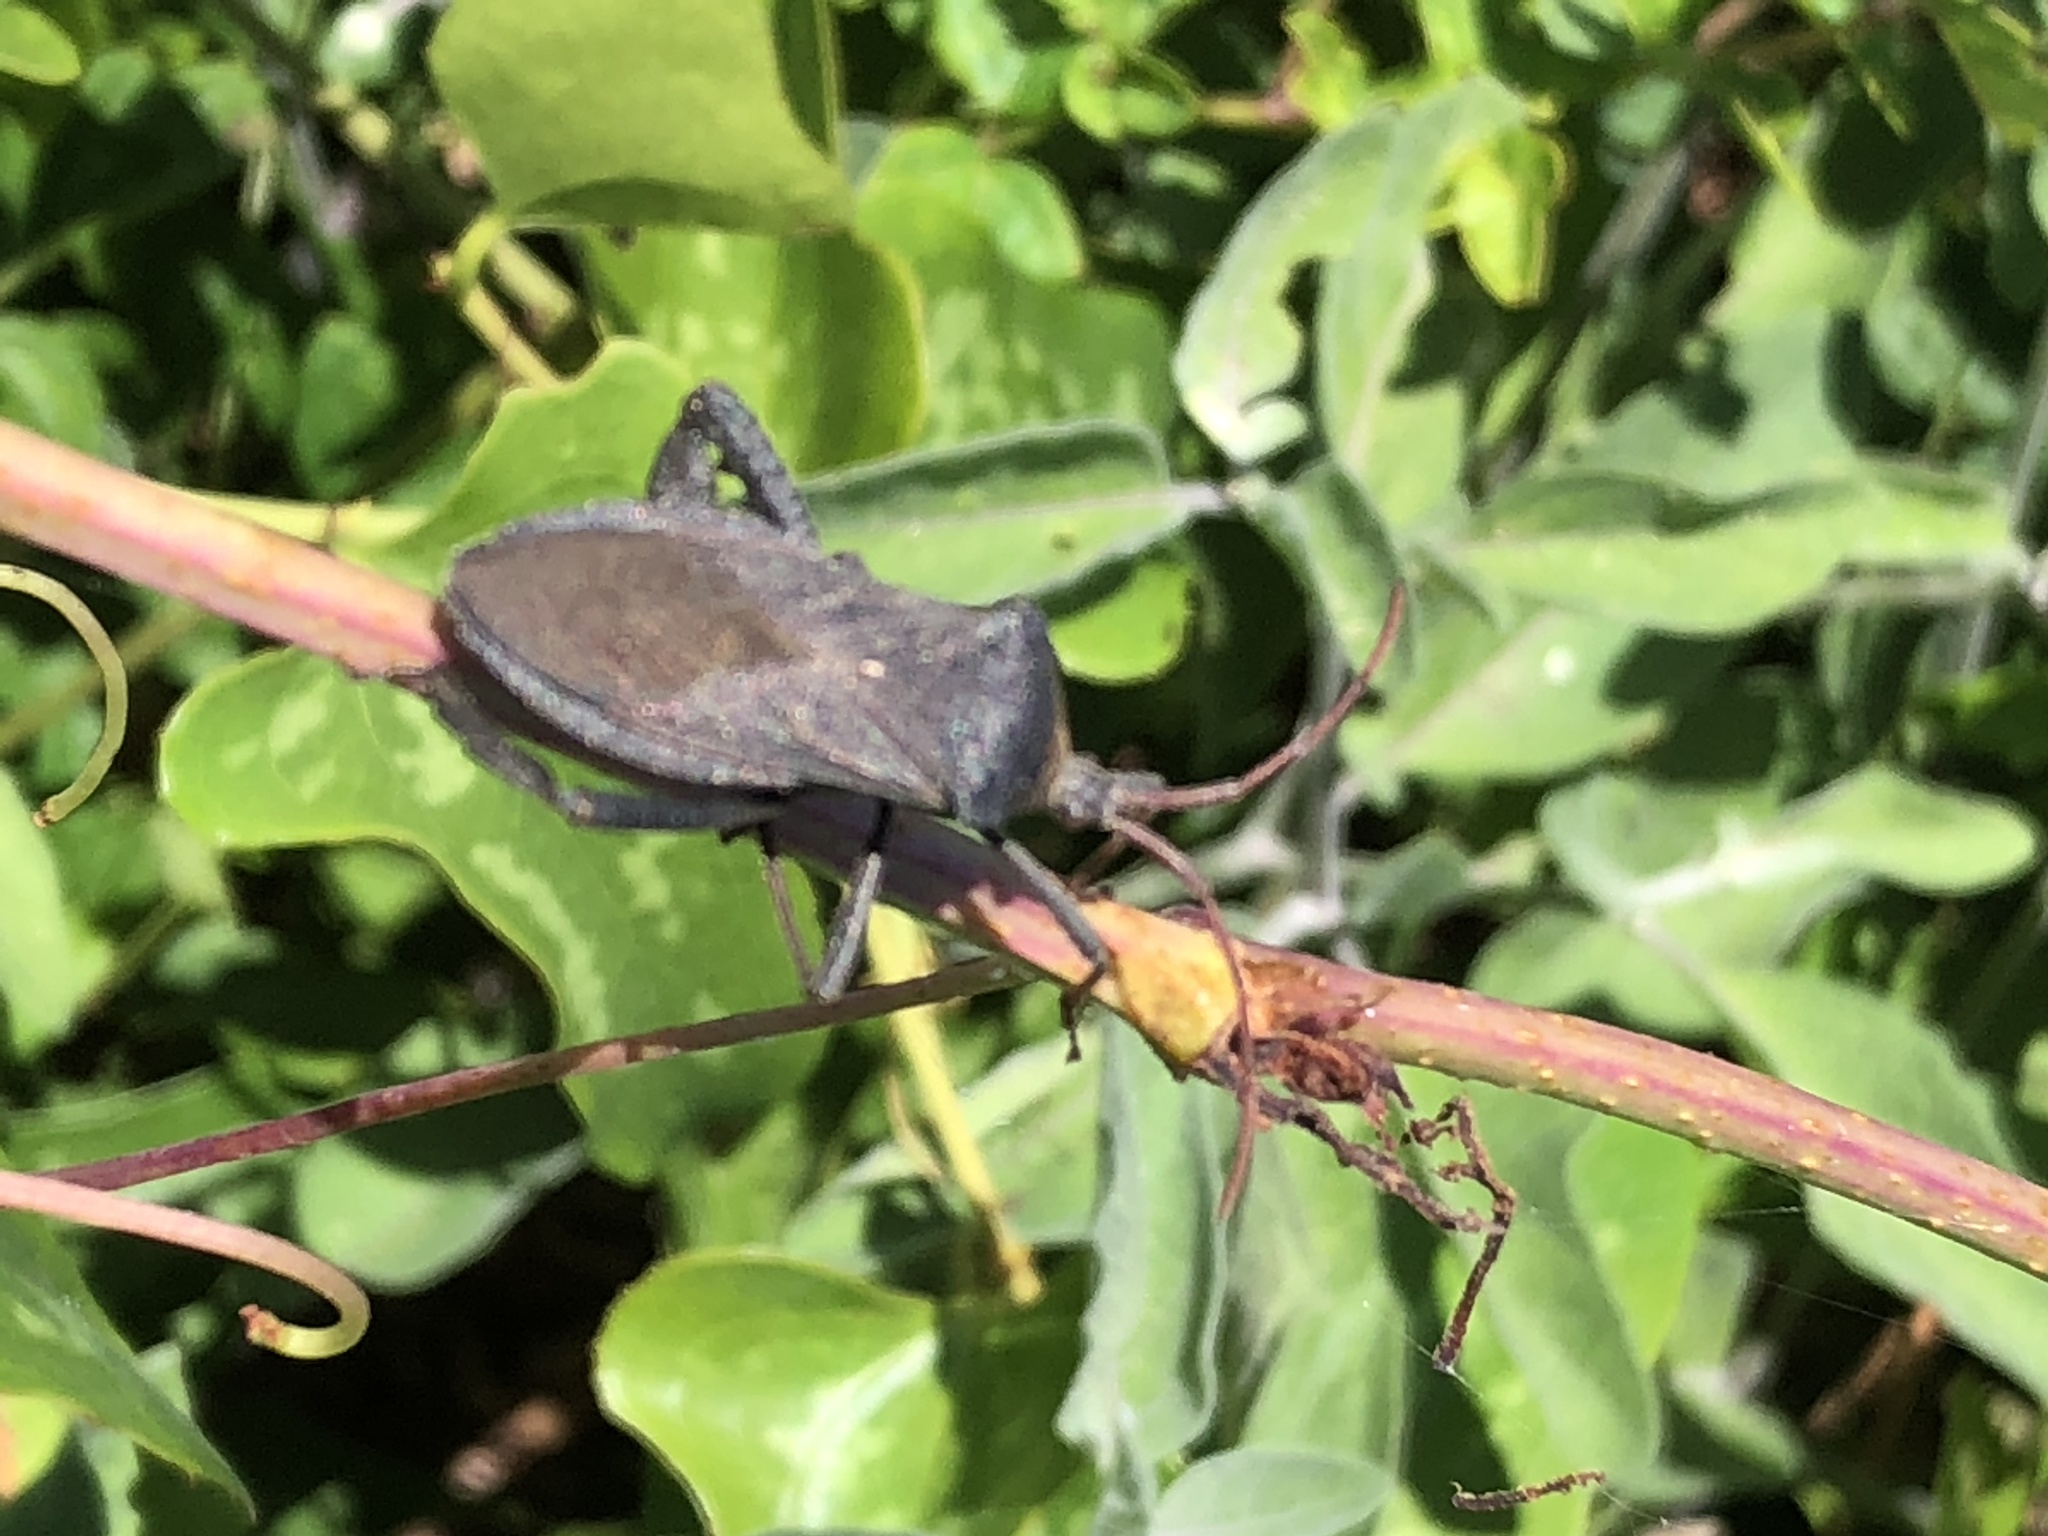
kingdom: Animalia
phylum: Arthropoda
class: Insecta
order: Hemiptera
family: Coreidae
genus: Acanthocephala
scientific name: Acanthocephala femorata
